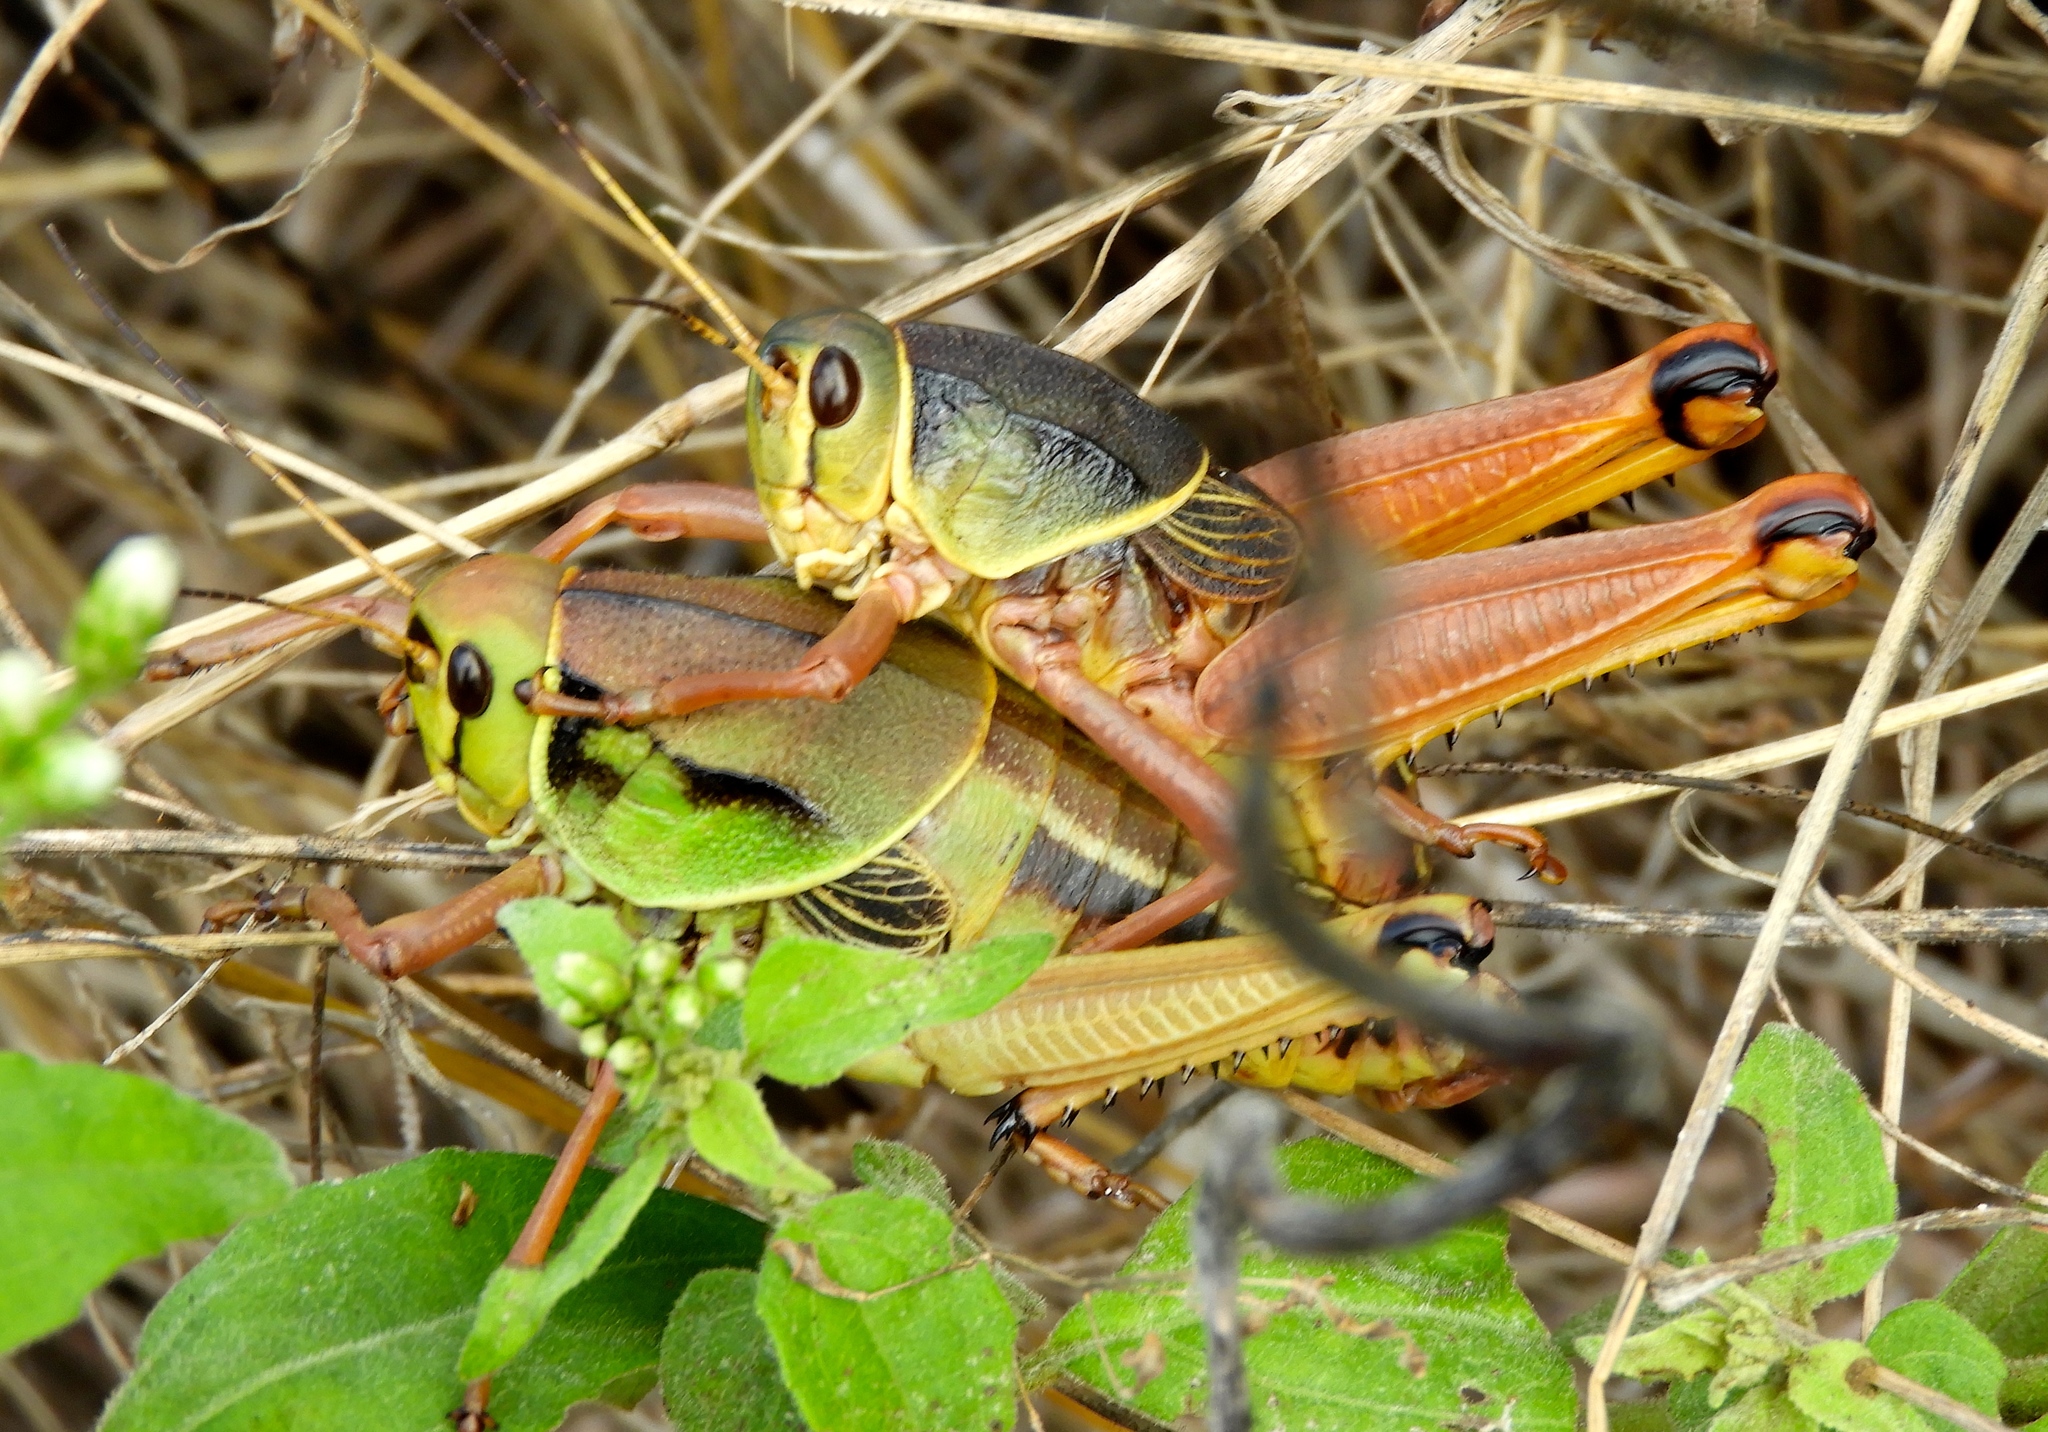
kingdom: Animalia
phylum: Arthropoda
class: Insecta
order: Orthoptera
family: Romaleidae
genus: Brachystola
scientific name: Brachystola behrensii
